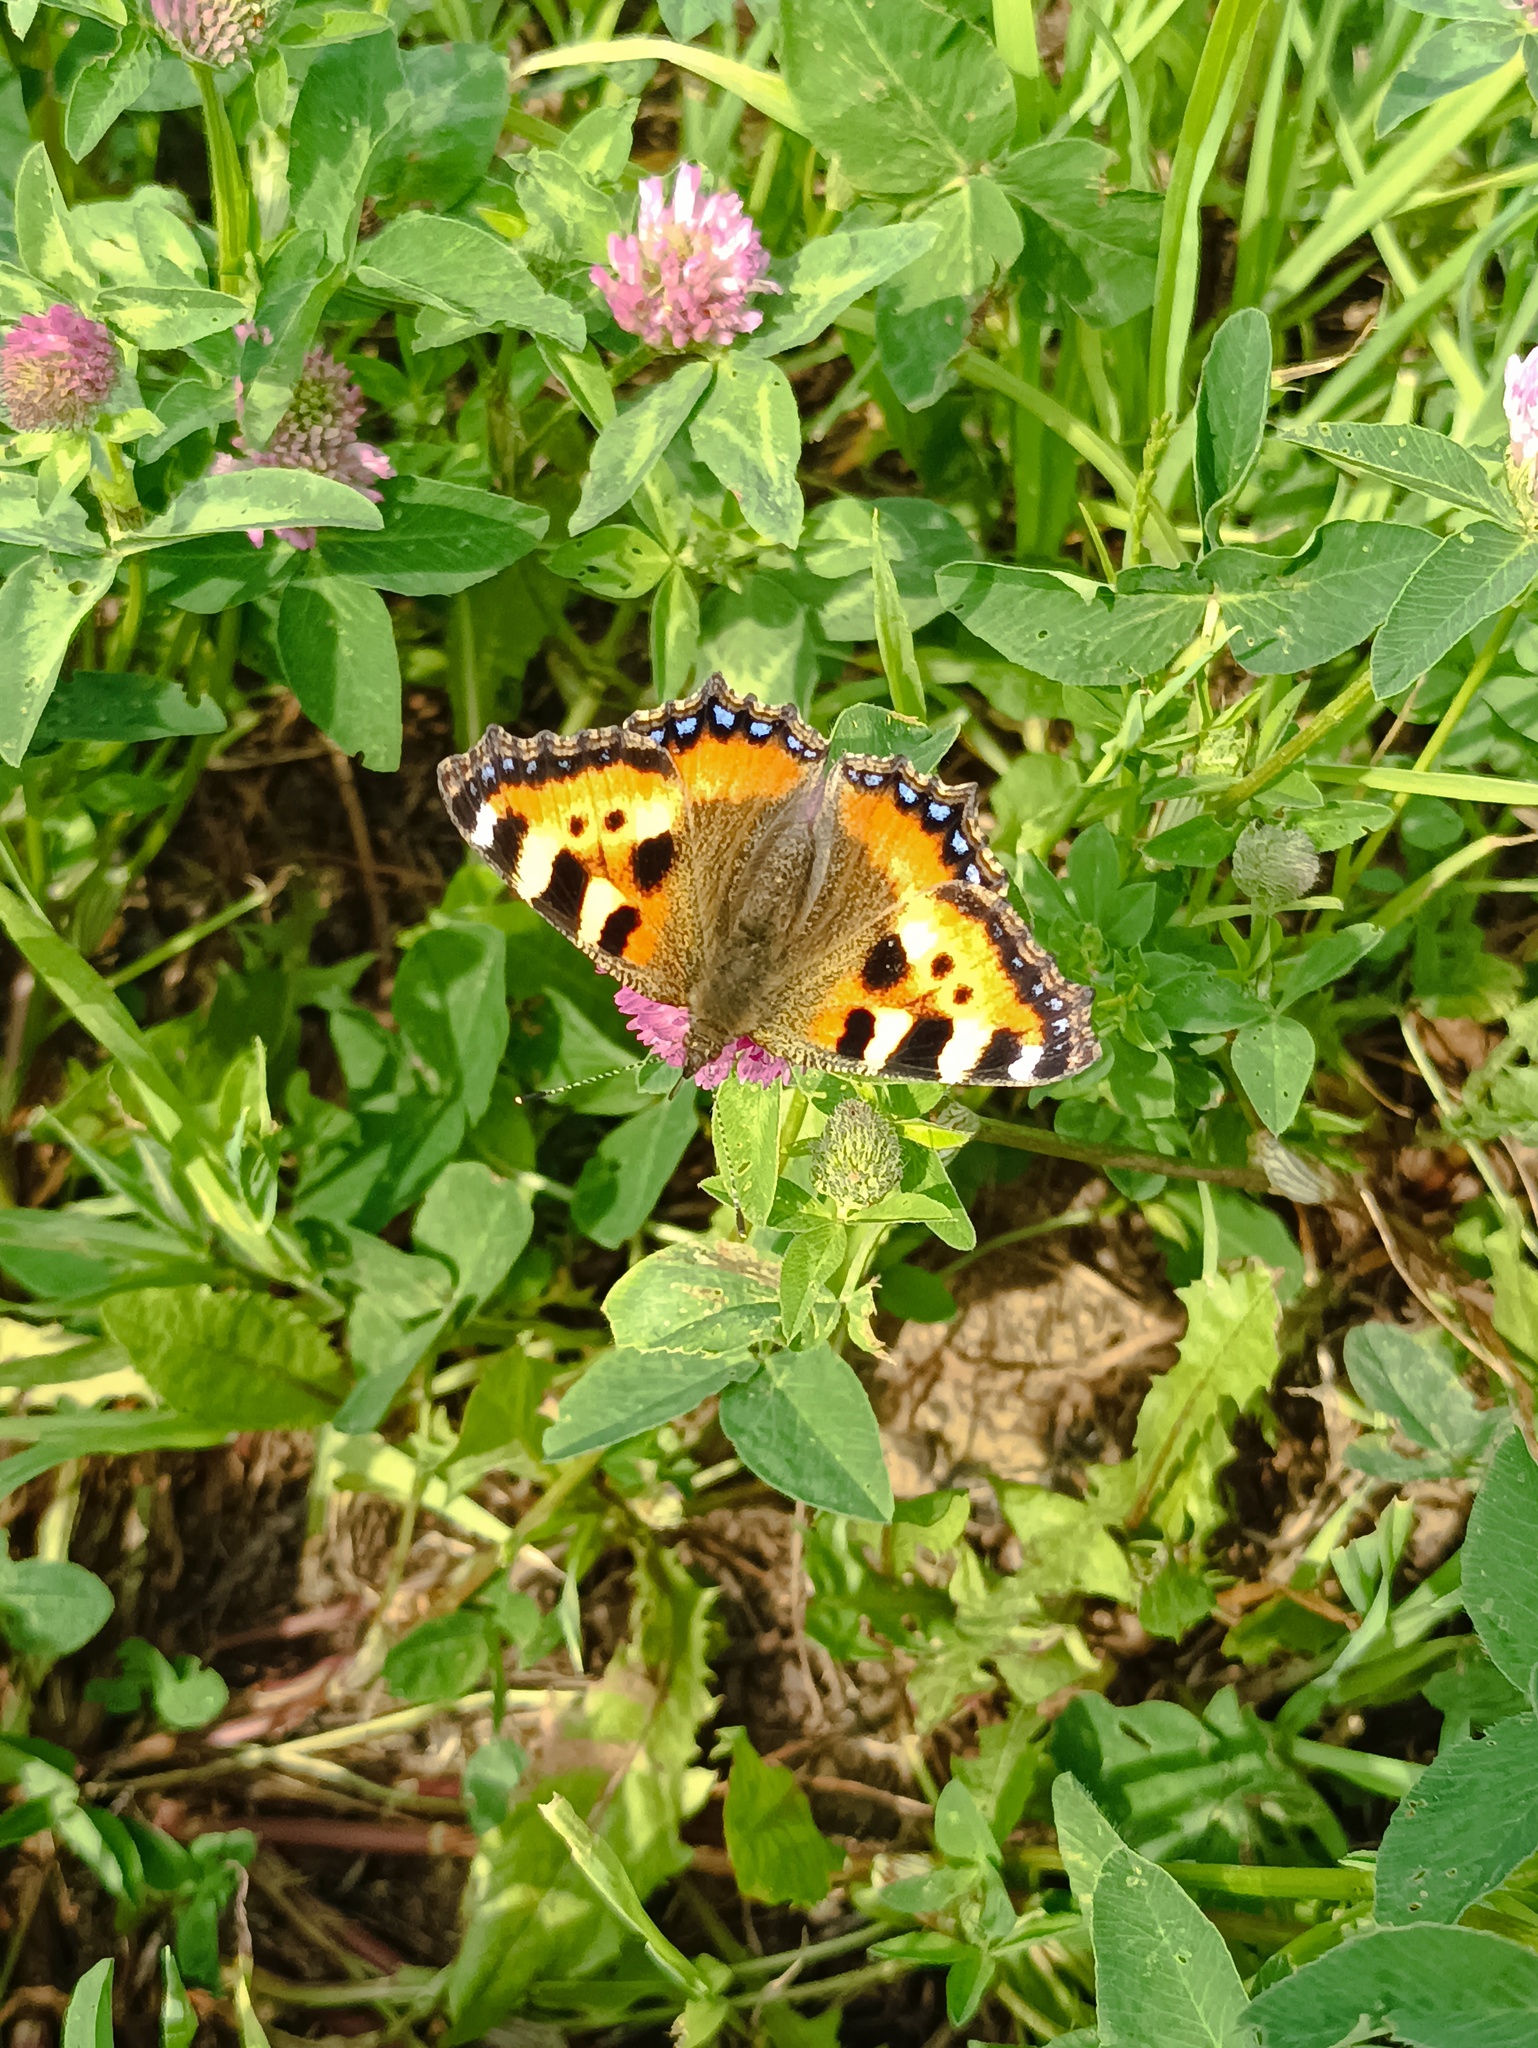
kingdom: Animalia
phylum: Arthropoda
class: Insecta
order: Lepidoptera
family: Nymphalidae
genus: Aglais
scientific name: Aglais urticae
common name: Small tortoiseshell
